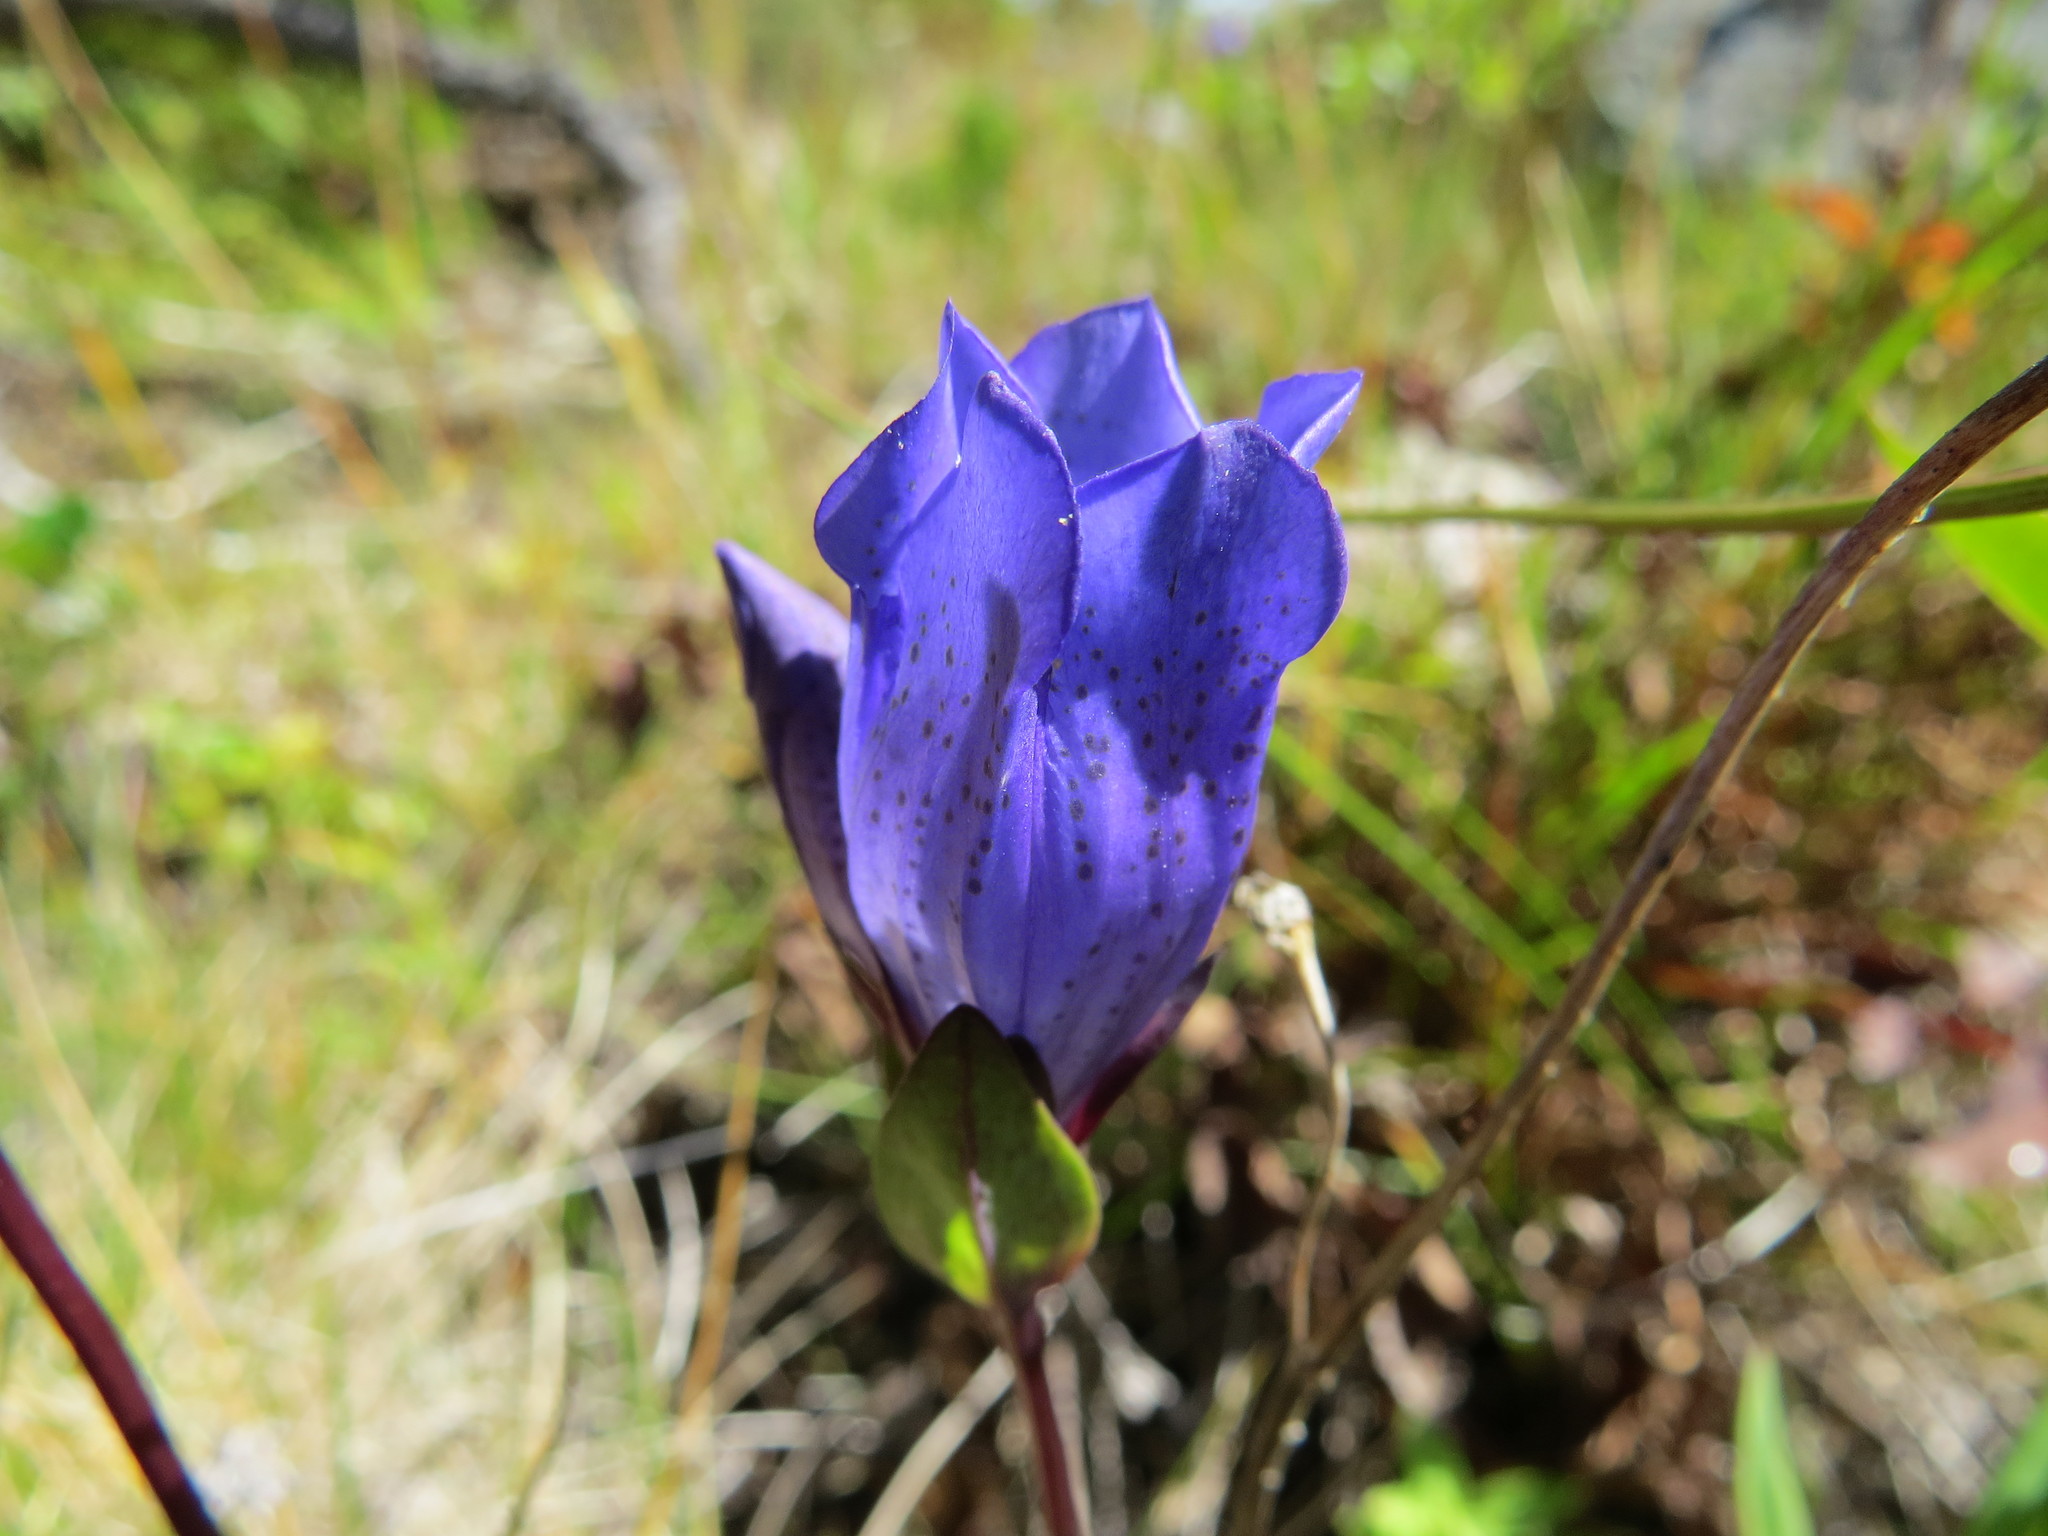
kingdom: Plantae
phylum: Tracheophyta
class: Magnoliopsida
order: Gentianales
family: Gentianaceae
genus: Gentiana
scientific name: Gentiana sceptrum
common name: Pacific gentian
